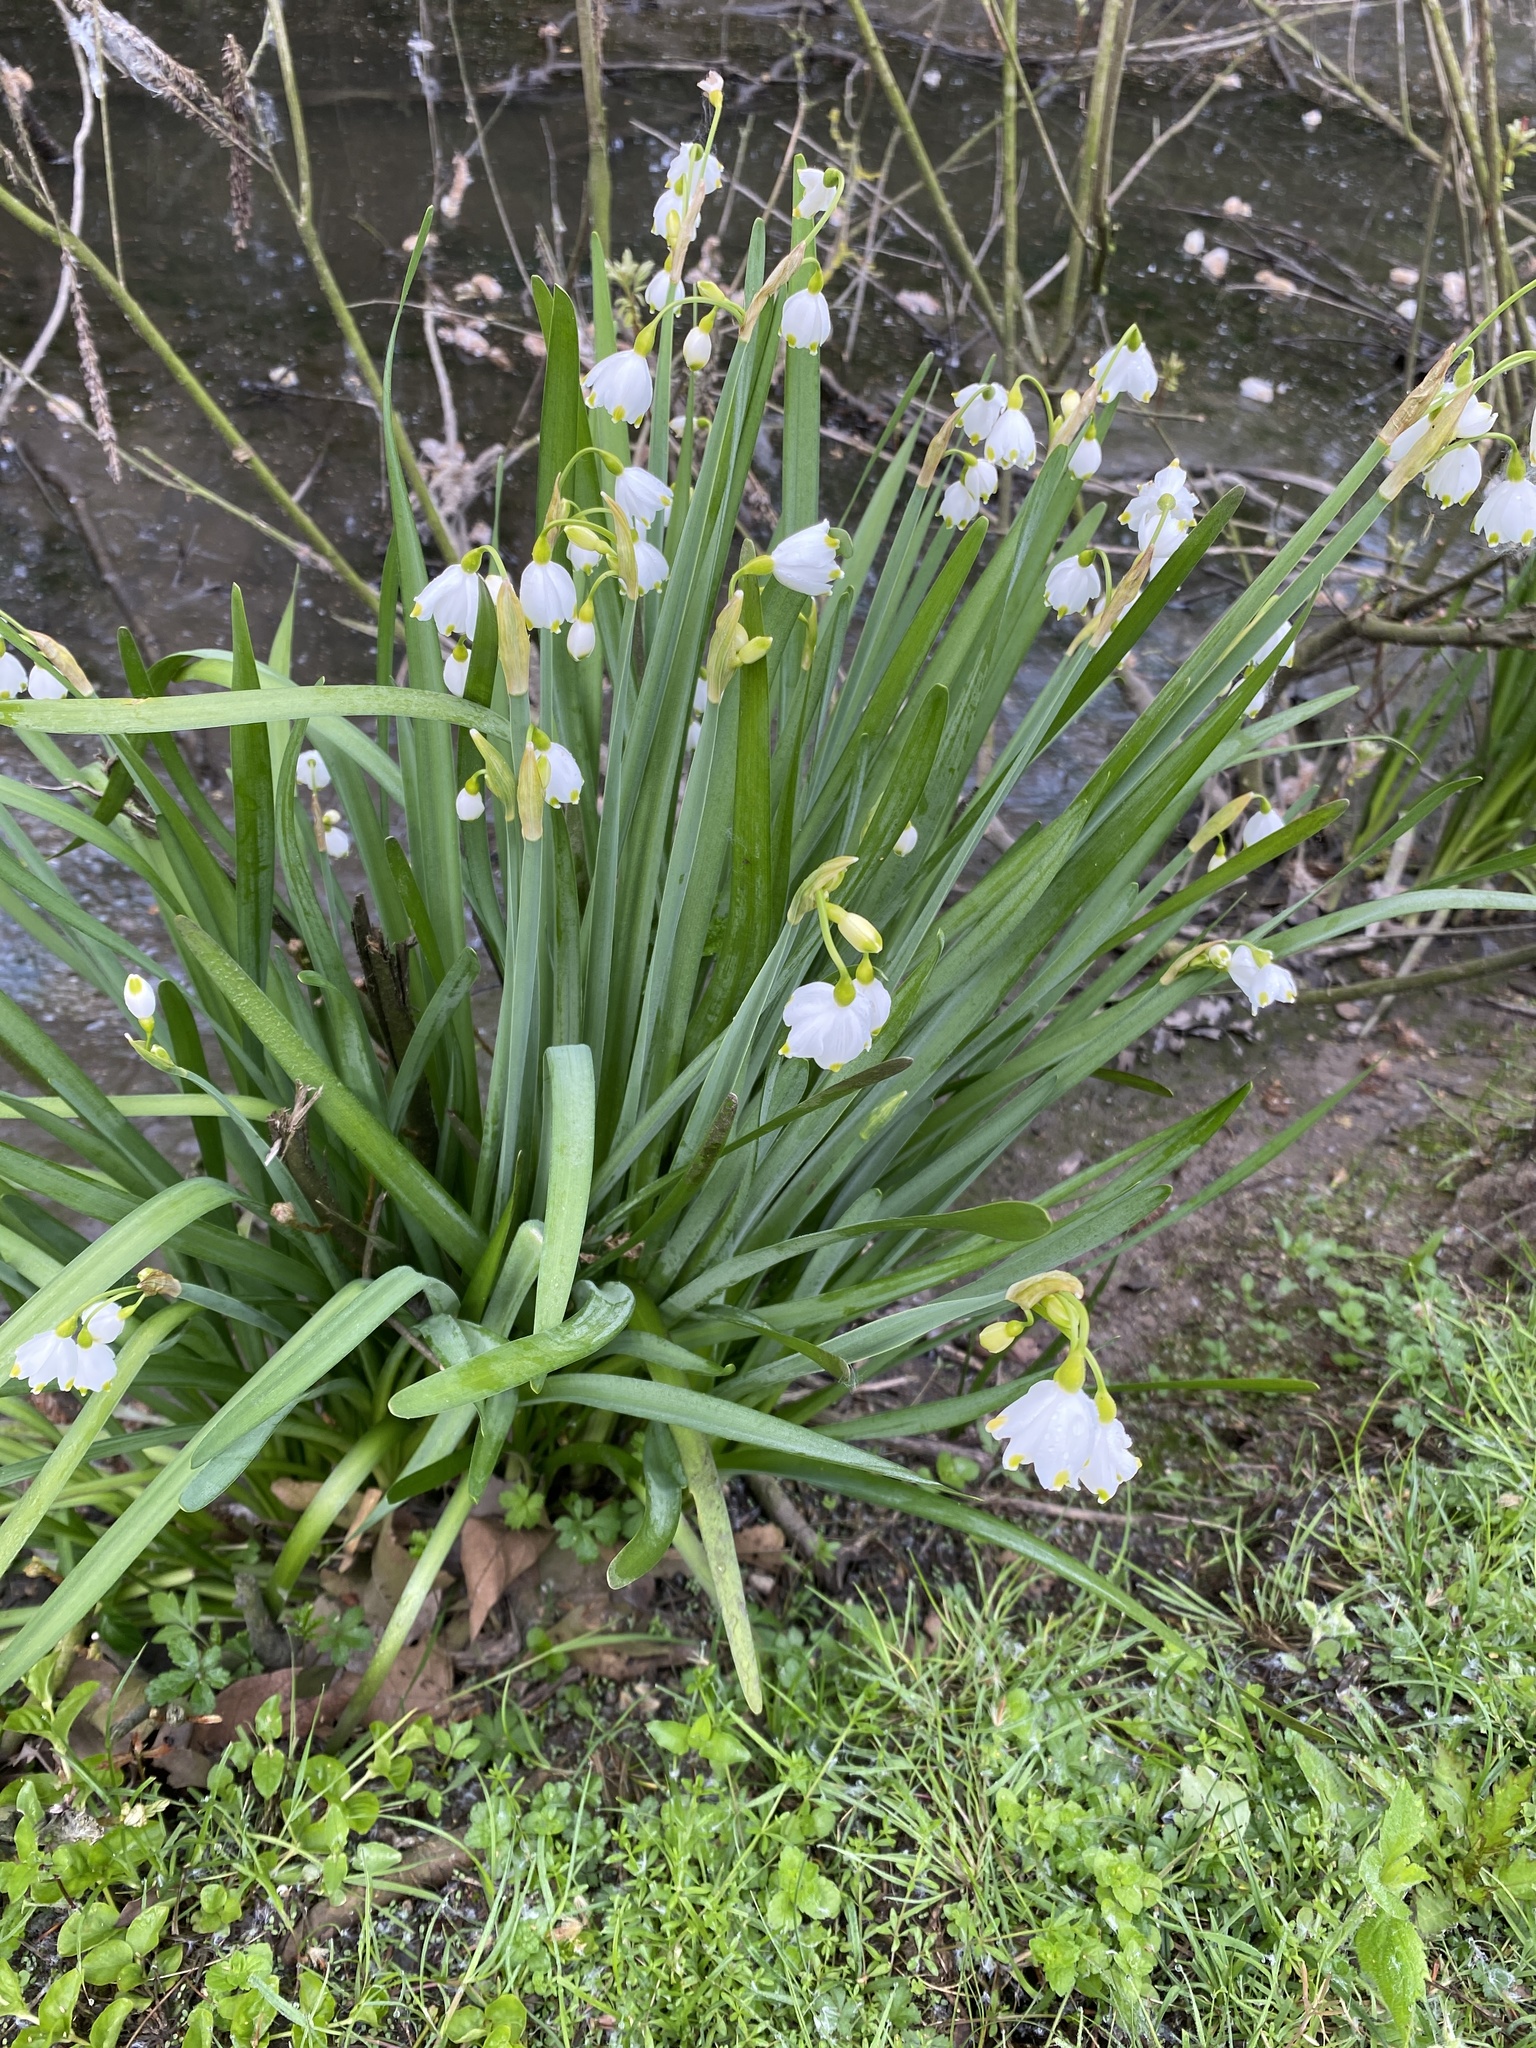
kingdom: Plantae
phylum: Tracheophyta
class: Liliopsida
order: Asparagales
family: Amaryllidaceae
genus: Leucojum
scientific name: Leucojum aestivum
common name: Summer snowflake
